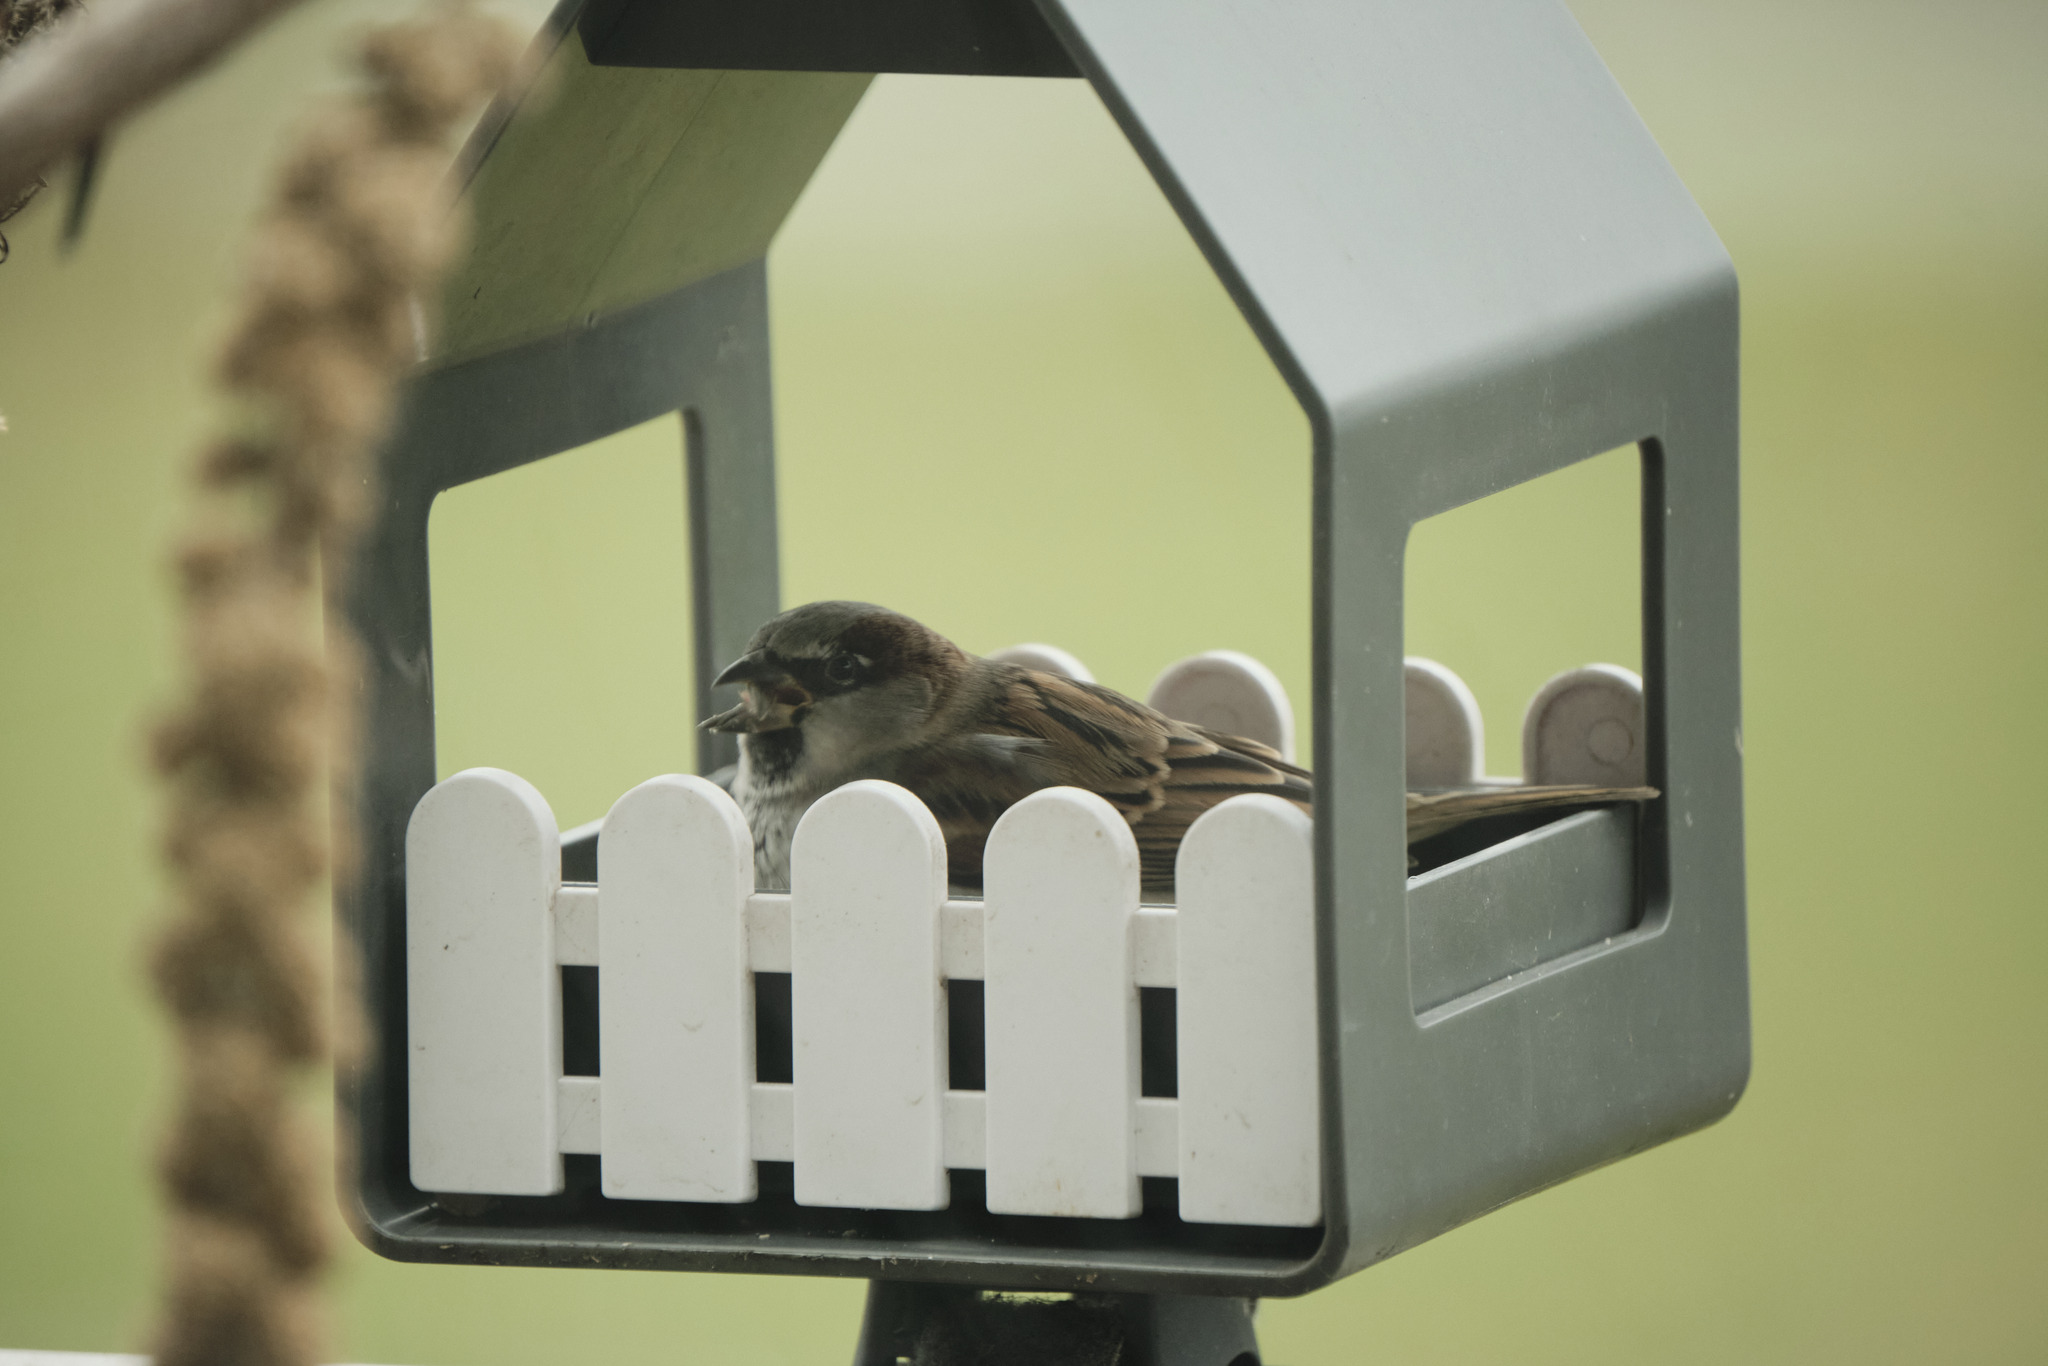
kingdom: Animalia
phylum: Chordata
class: Aves
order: Passeriformes
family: Passeridae
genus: Passer
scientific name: Passer domesticus
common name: House sparrow
